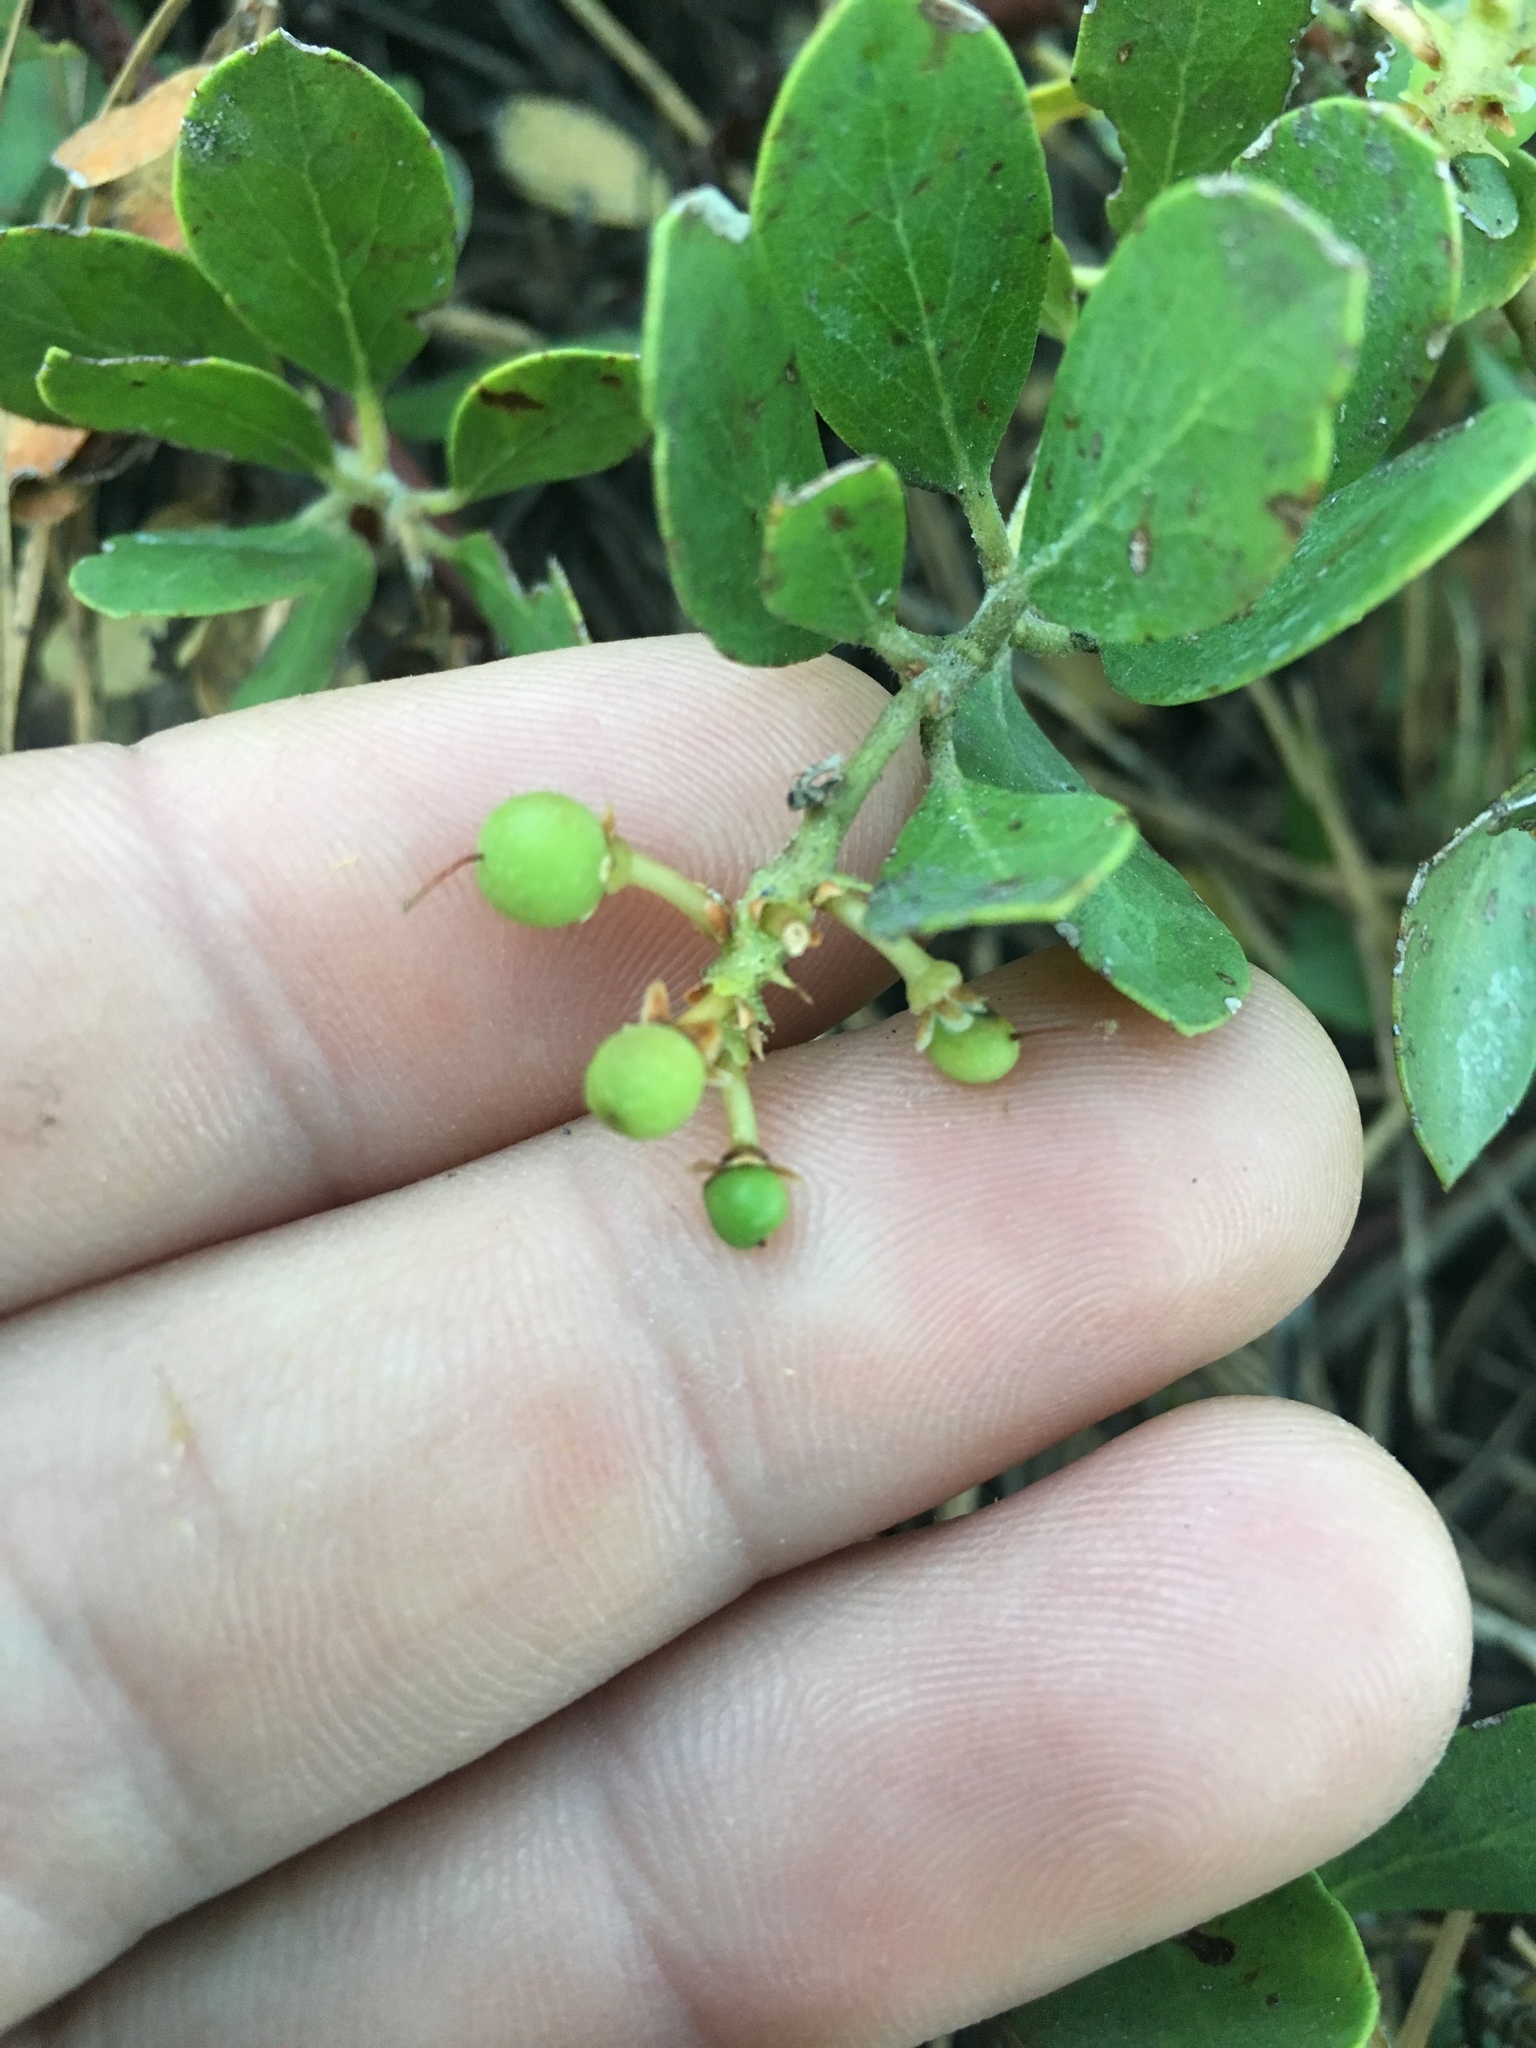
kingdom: Plantae
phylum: Tracheophyta
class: Magnoliopsida
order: Ericales
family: Ericaceae
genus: Arctostaphylos
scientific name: Arctostaphylos nevadensis
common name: Pinemat manzanita
